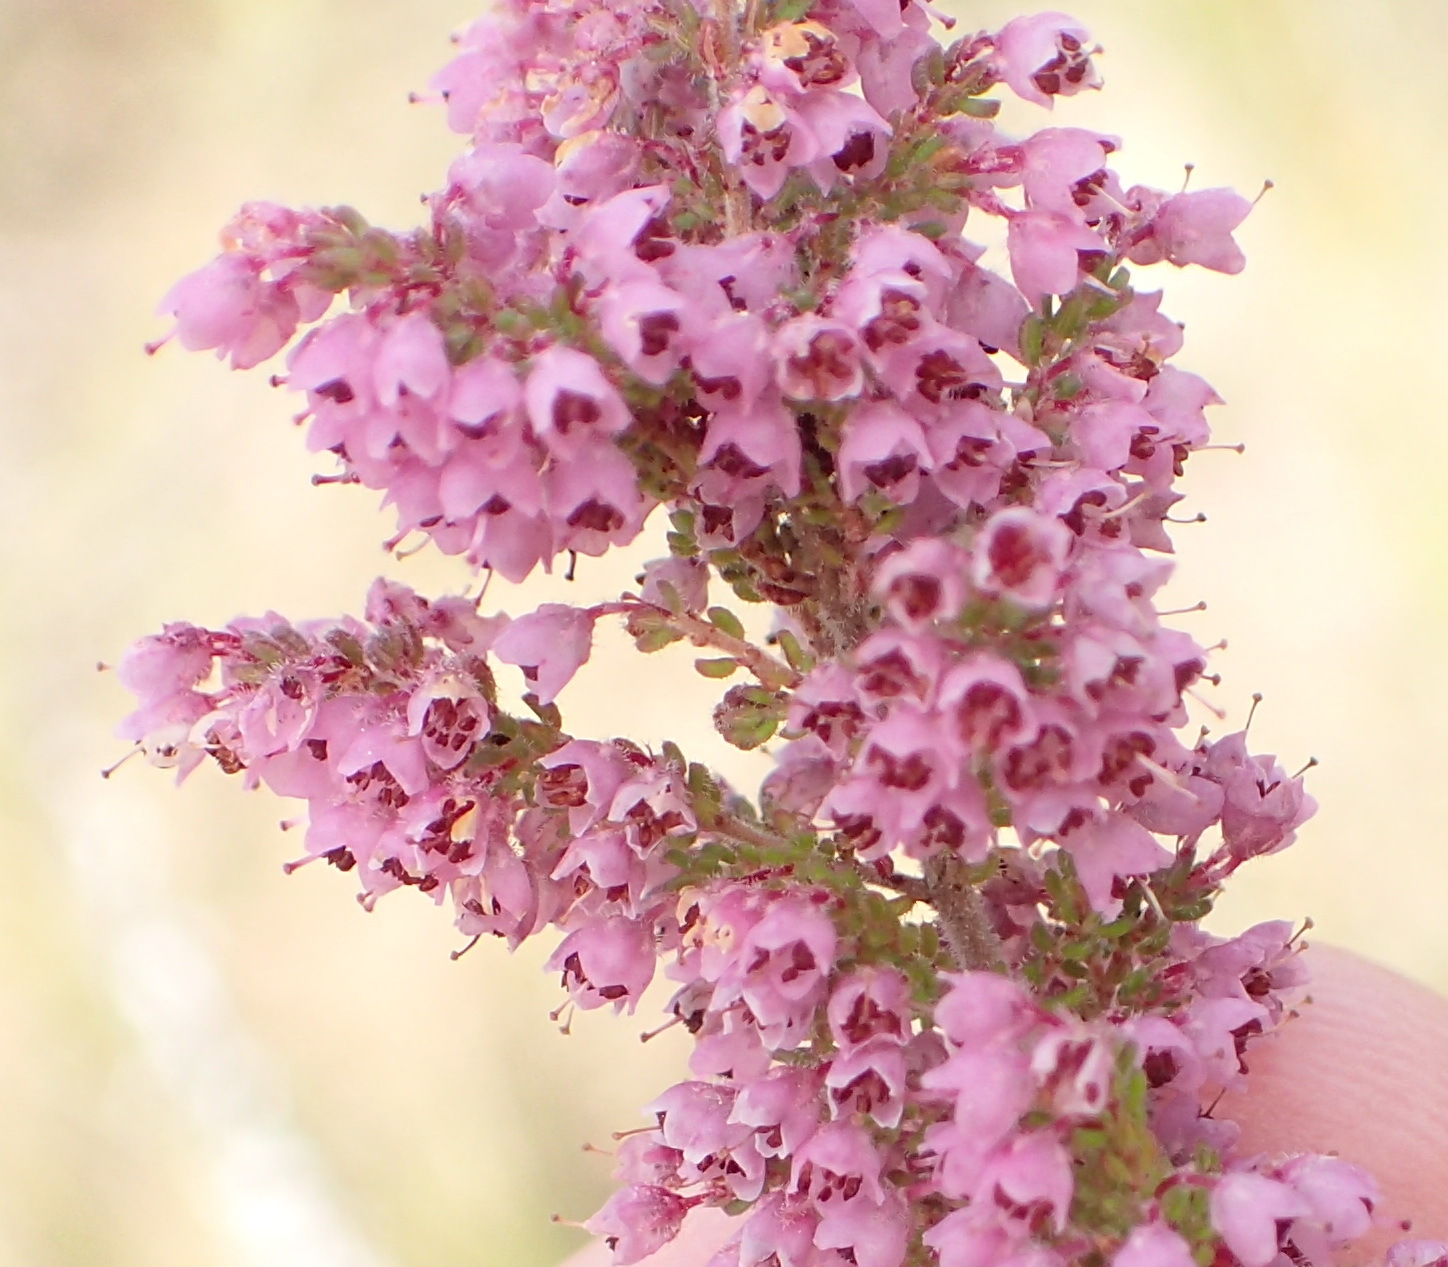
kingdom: Plantae
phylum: Tracheophyta
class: Magnoliopsida
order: Ericales
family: Ericaceae
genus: Erica
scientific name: Erica onusta
